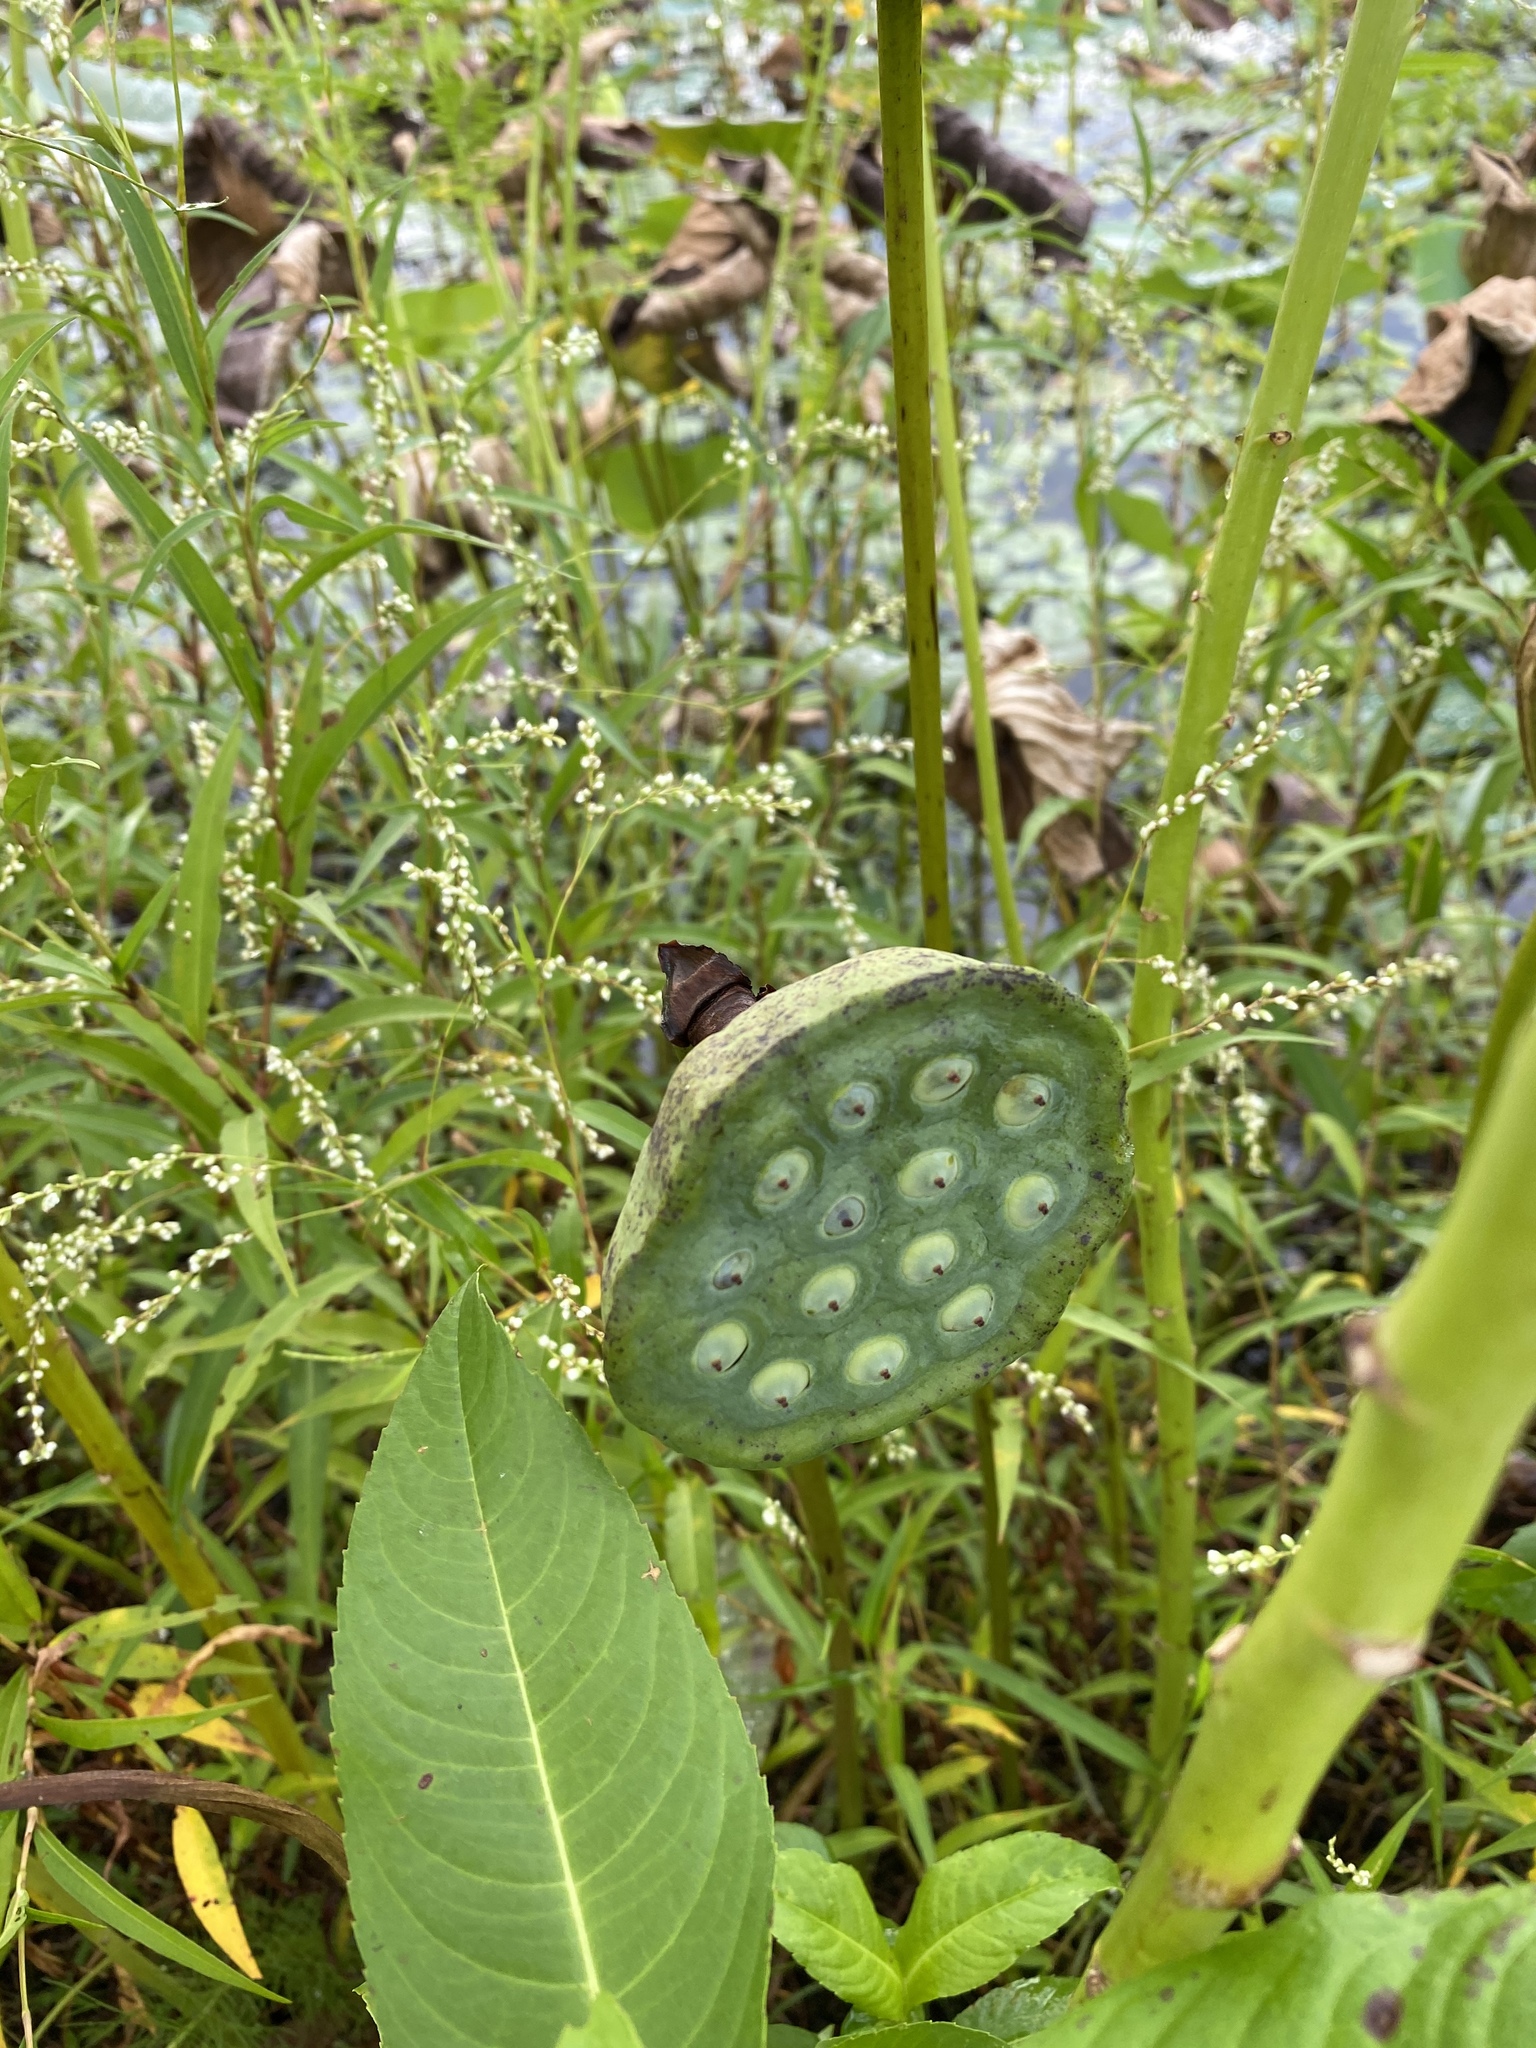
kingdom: Plantae
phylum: Tracheophyta
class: Magnoliopsida
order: Proteales
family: Nelumbonaceae
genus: Nelumbo
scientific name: Nelumbo lutea
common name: American lotus
